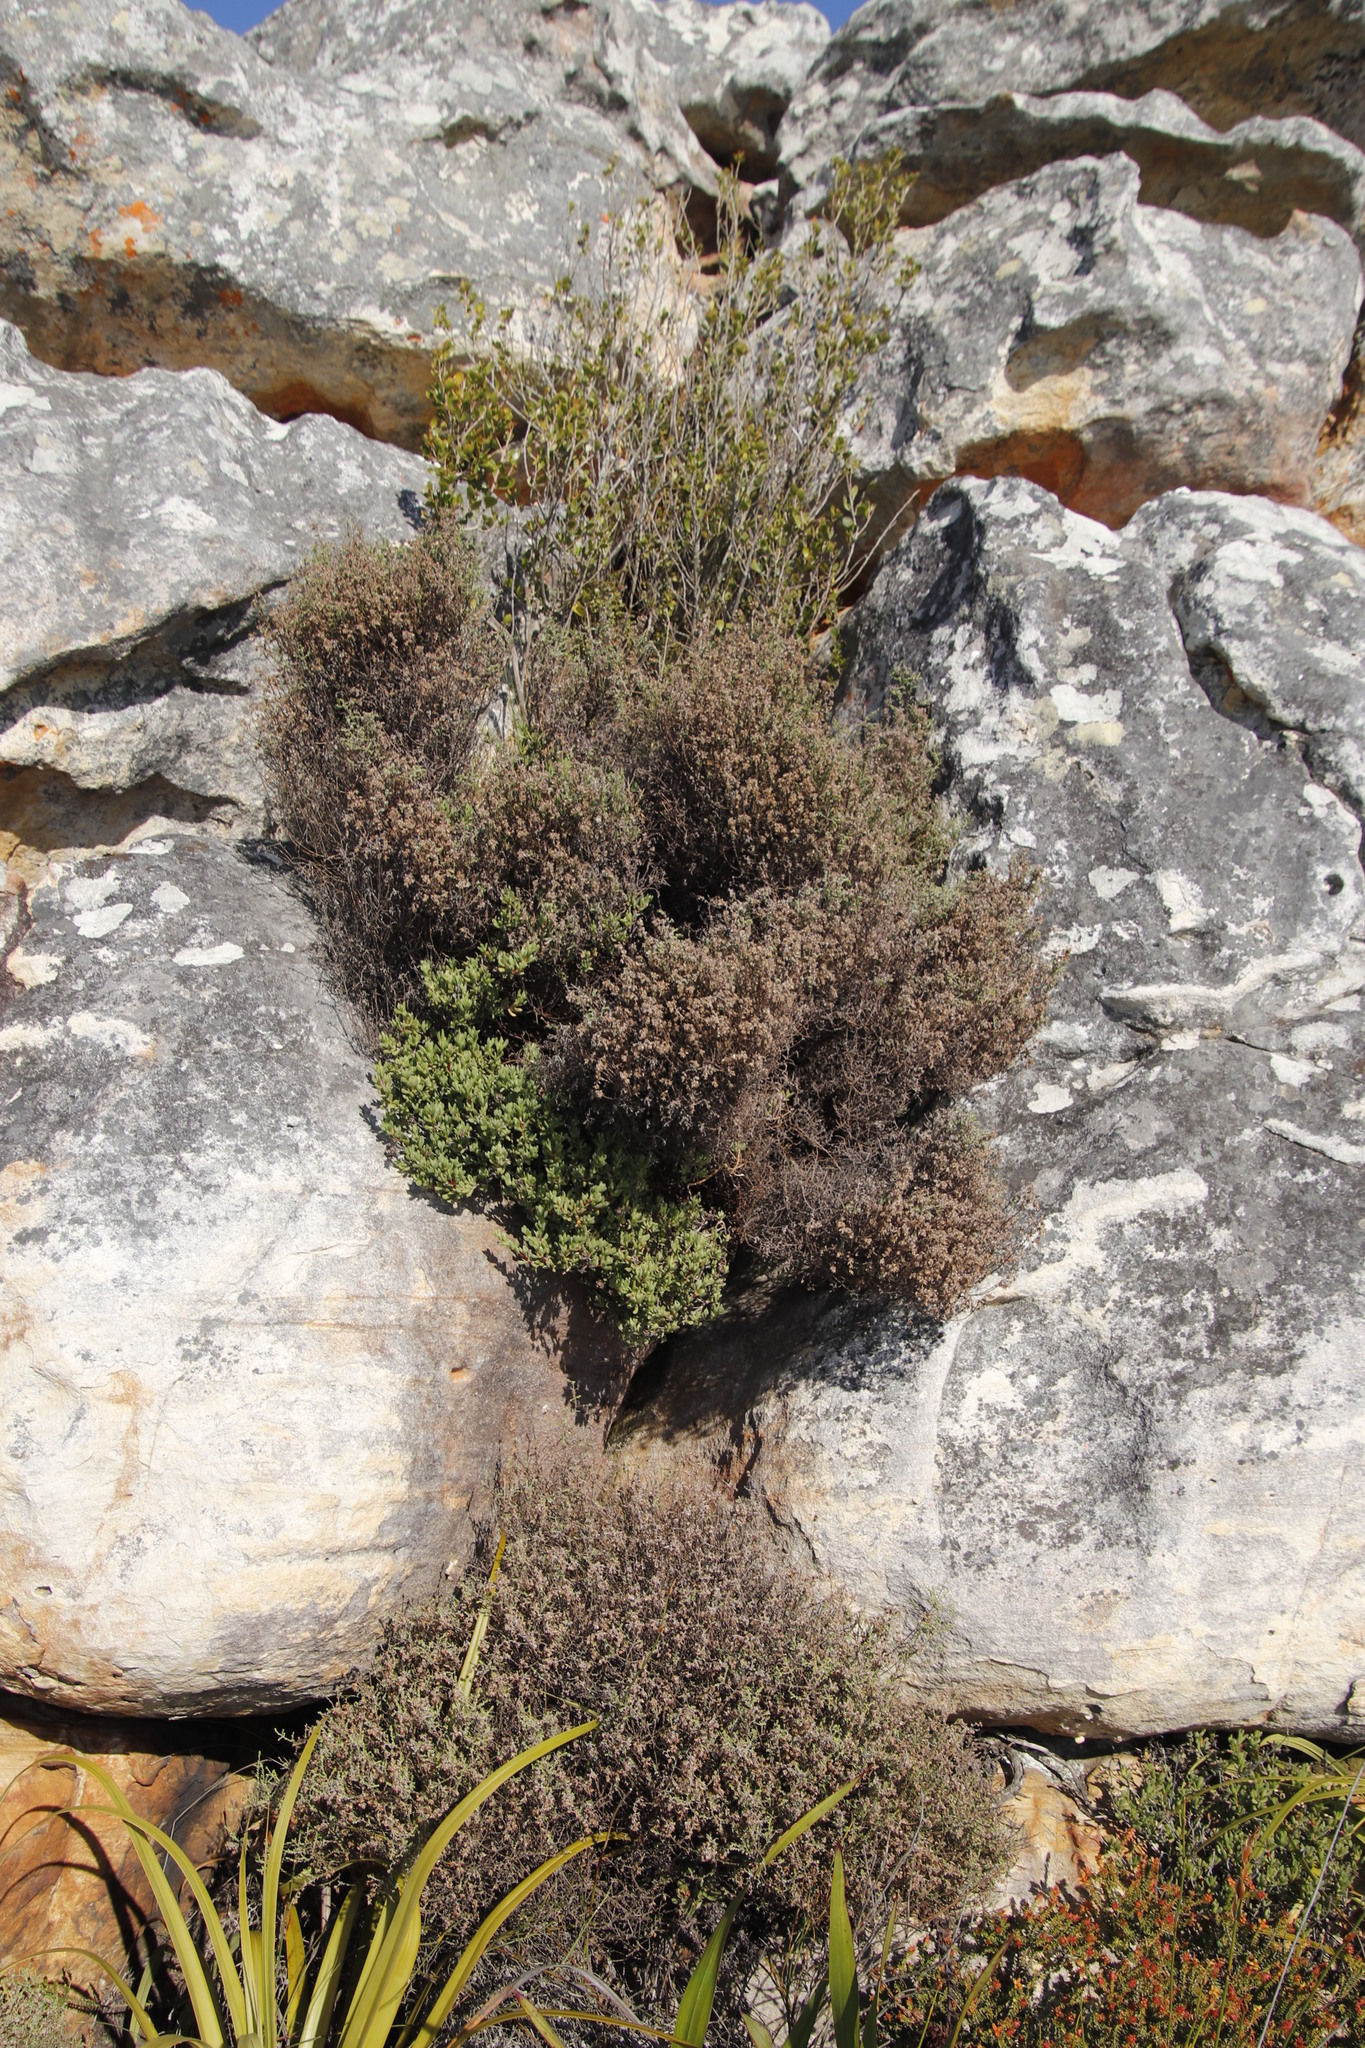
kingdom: Plantae
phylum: Tracheophyta
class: Magnoliopsida
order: Asterales
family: Asteraceae
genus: Myrovernix
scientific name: Myrovernix scaber
